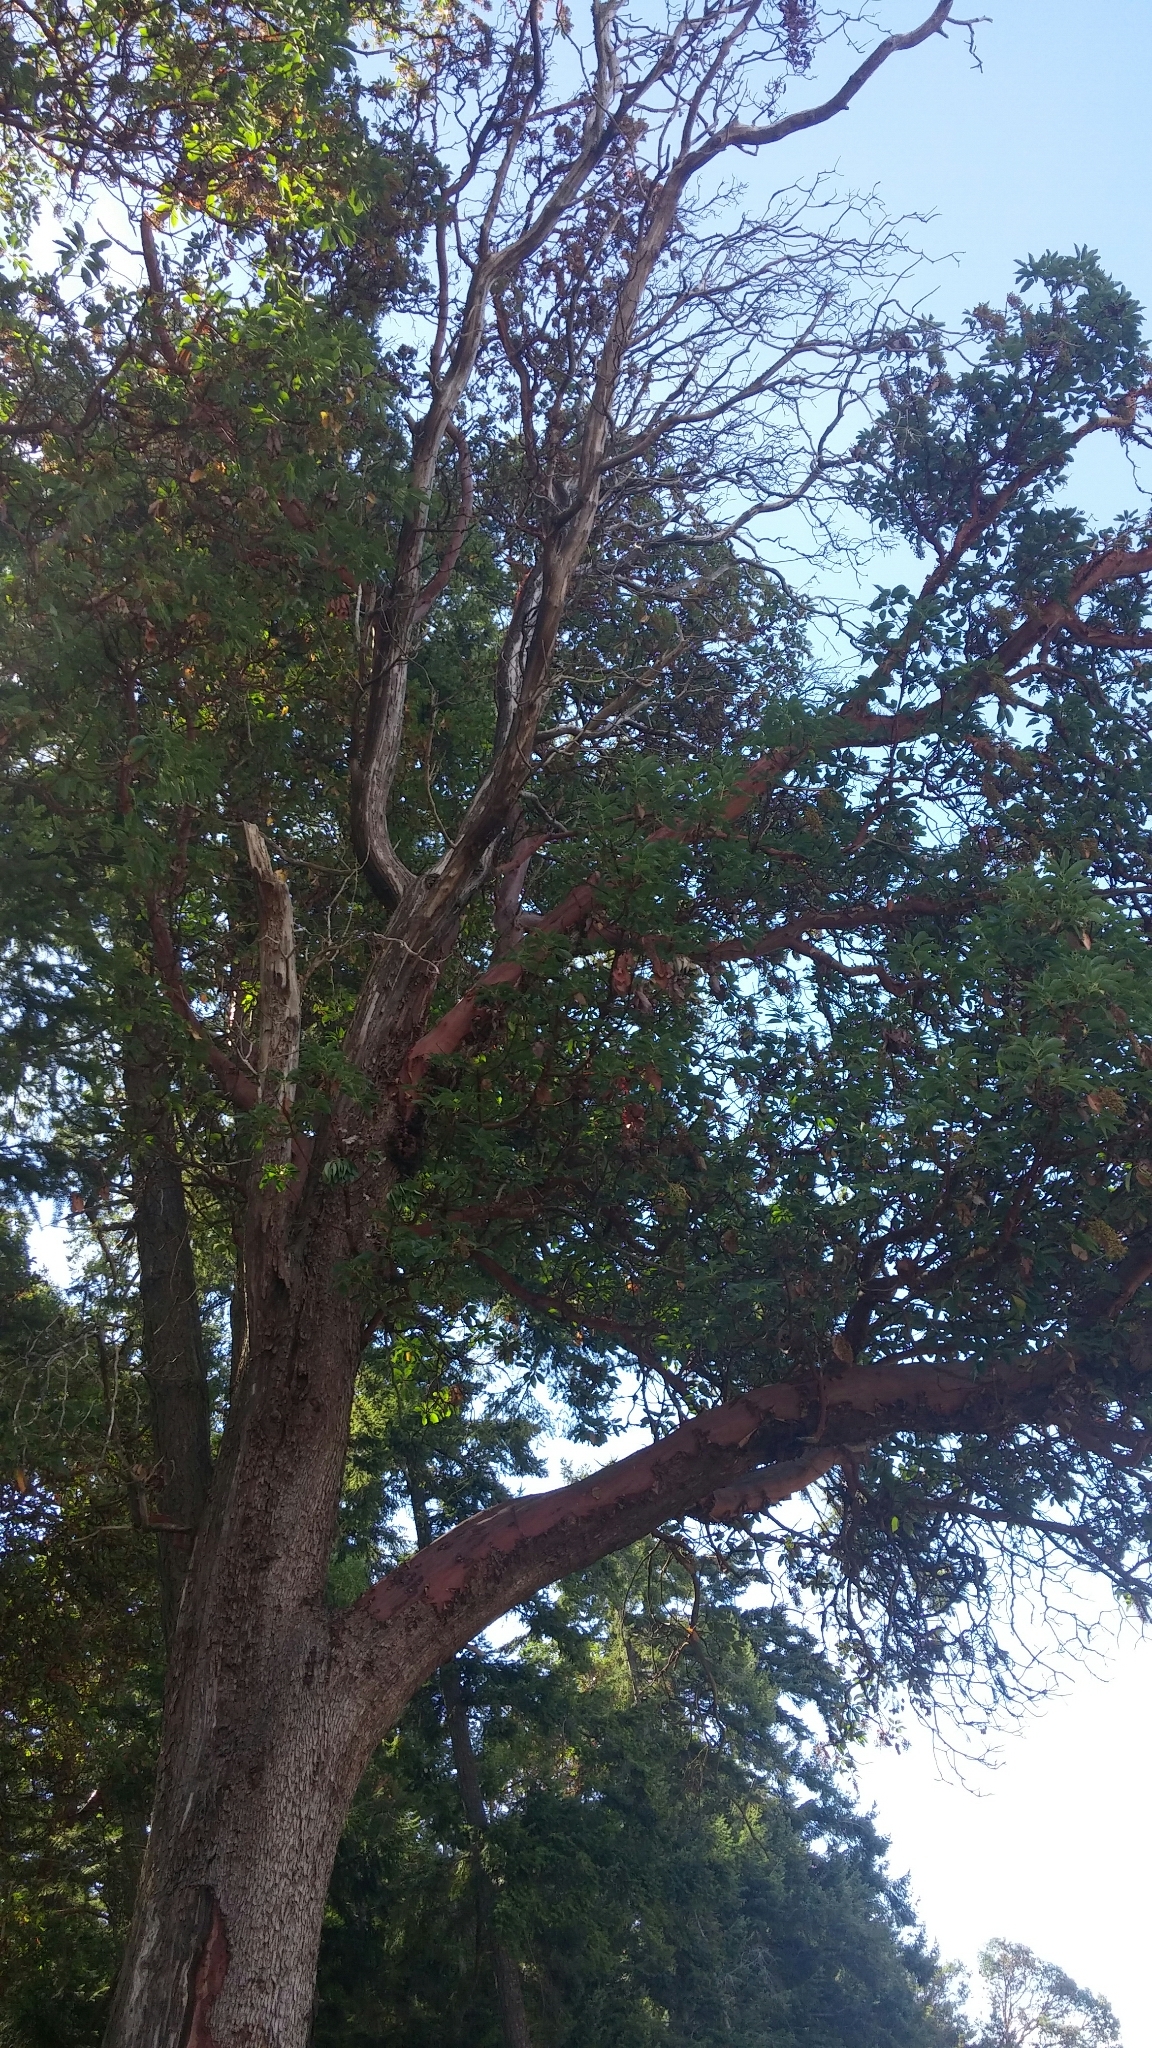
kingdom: Plantae
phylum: Tracheophyta
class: Magnoliopsida
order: Ericales
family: Ericaceae
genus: Arbutus
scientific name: Arbutus menziesii
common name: Pacific madrone
